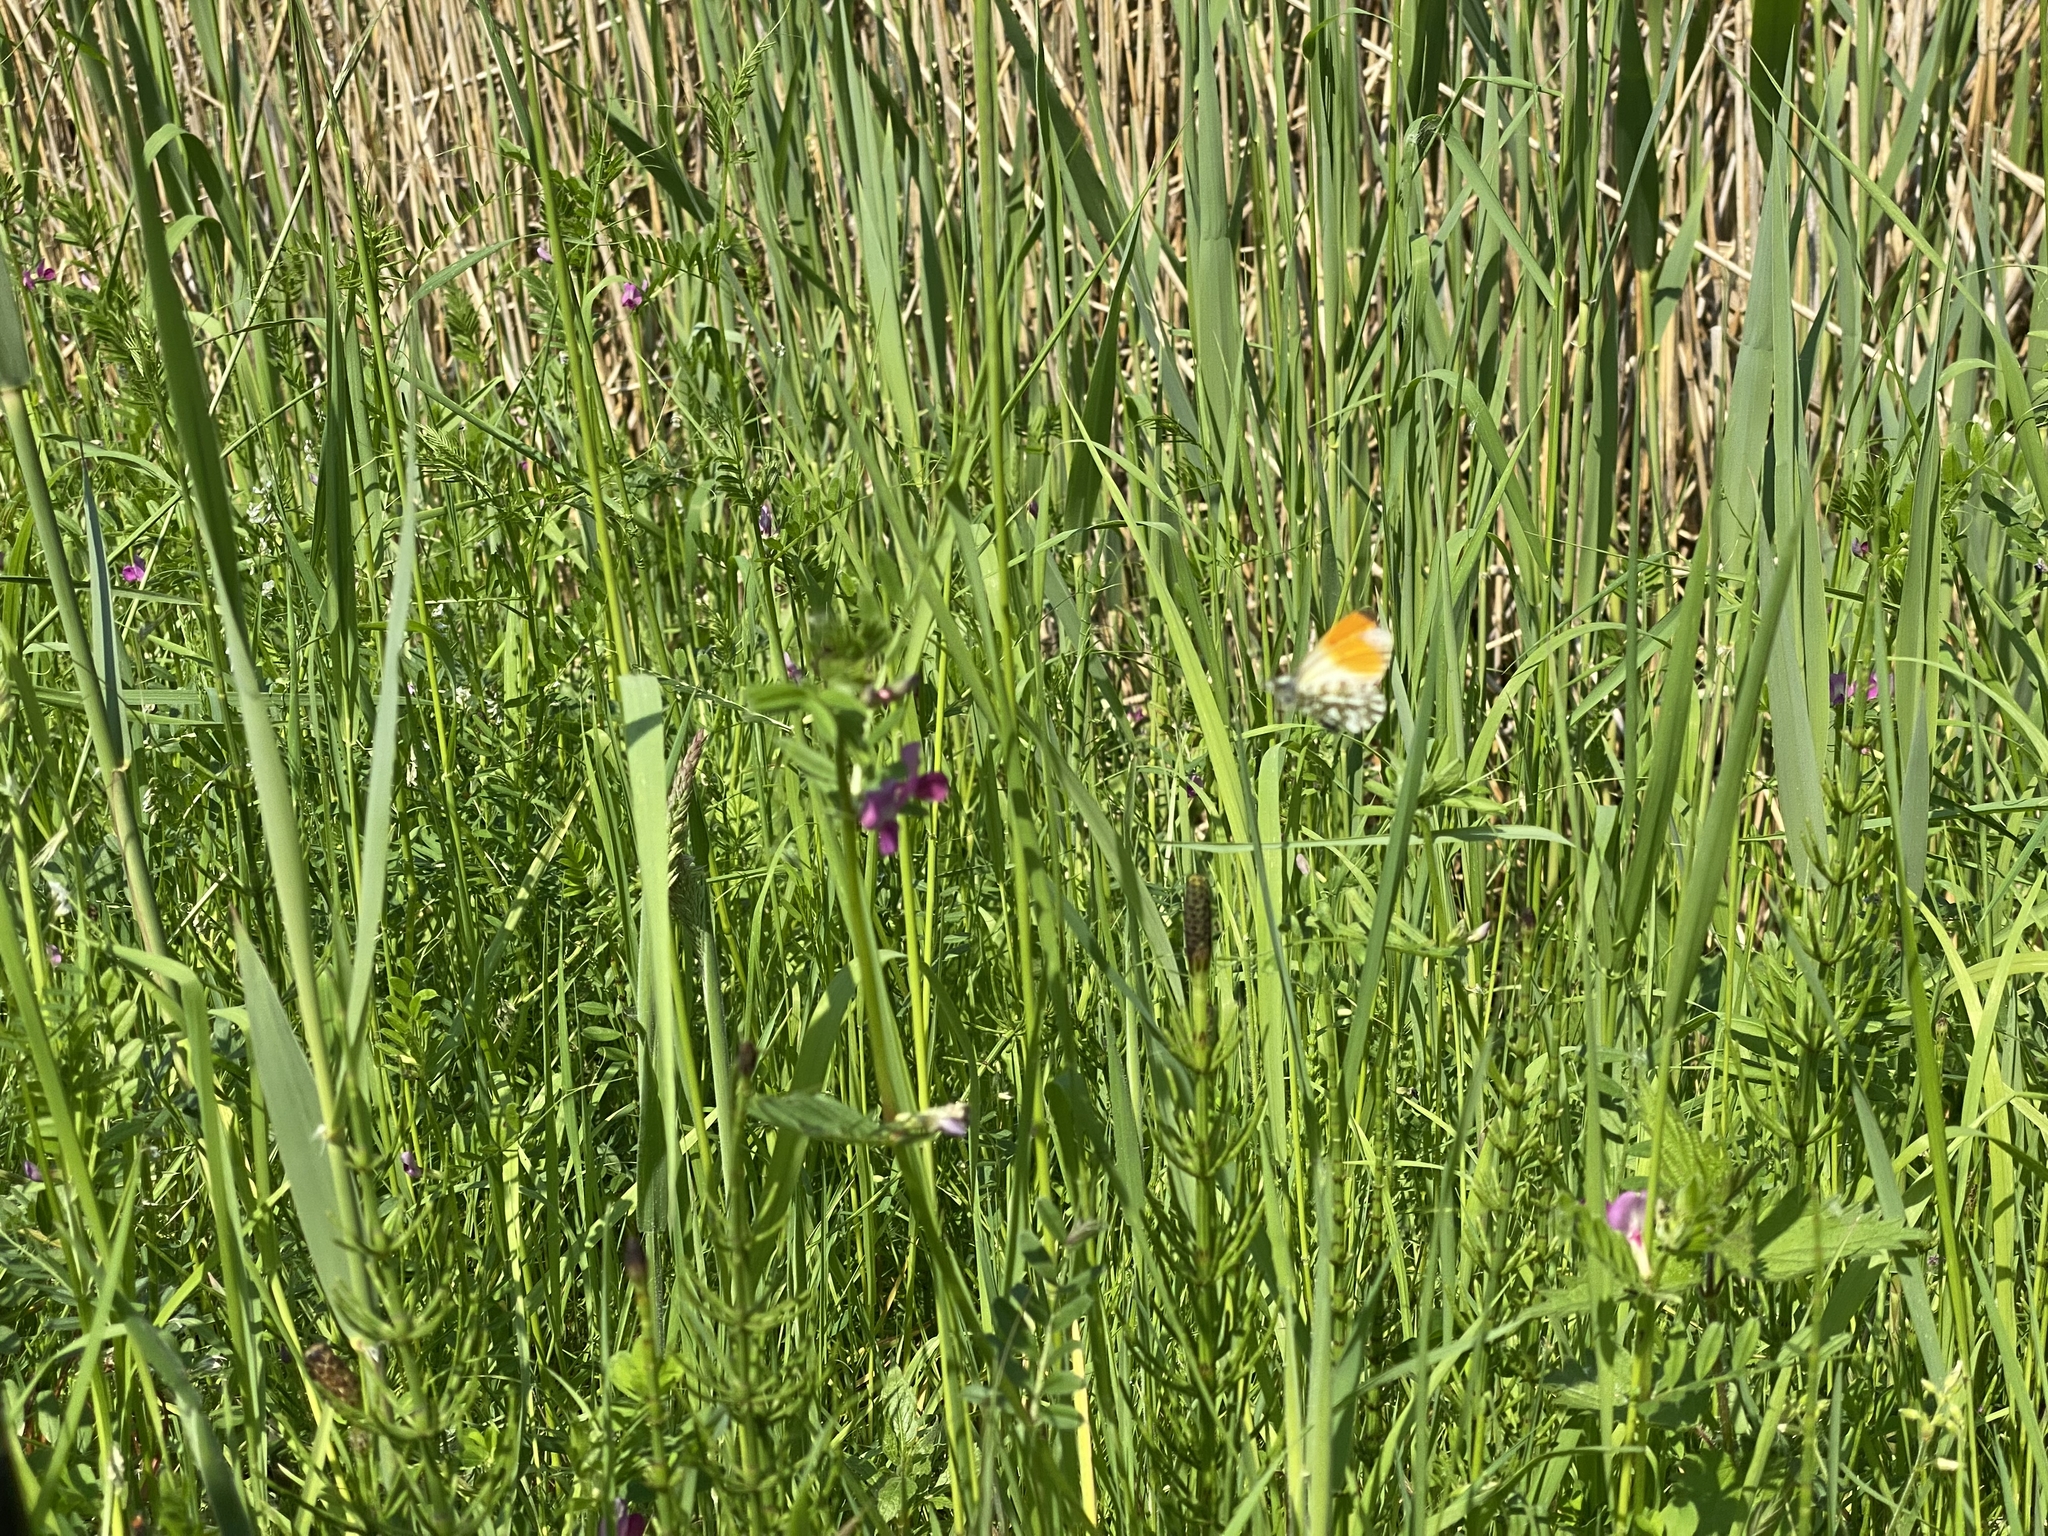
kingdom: Animalia
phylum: Arthropoda
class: Insecta
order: Lepidoptera
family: Pieridae
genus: Anthocharis
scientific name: Anthocharis cardamines
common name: Orange-tip
